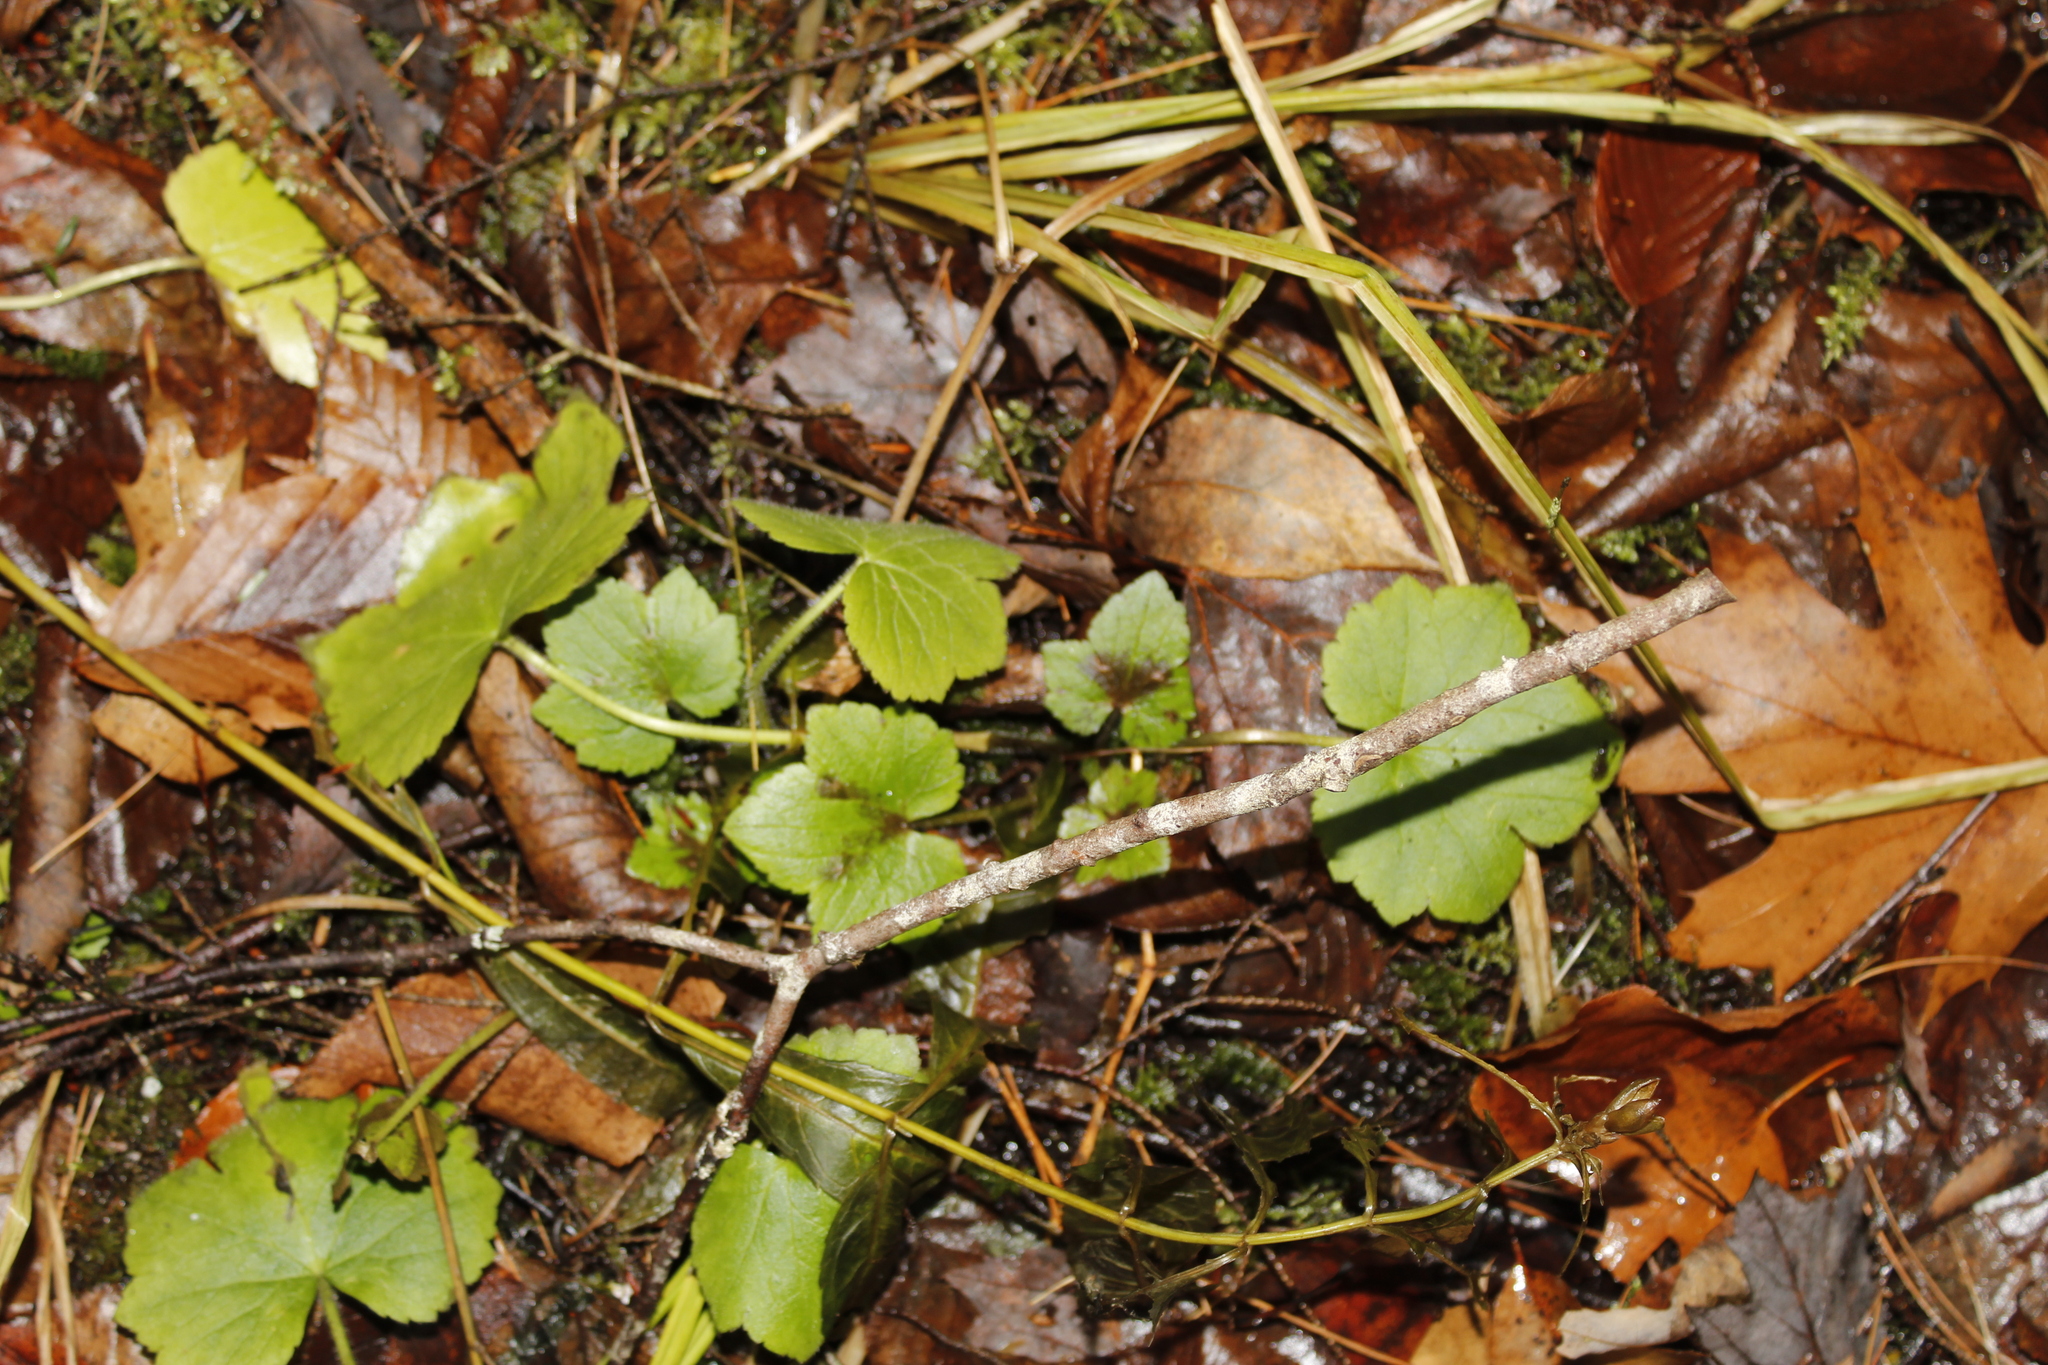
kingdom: Plantae
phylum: Tracheophyta
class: Magnoliopsida
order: Ranunculales
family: Ranunculaceae
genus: Ranunculus
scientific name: Ranunculus recurvatus
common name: Blisterwort
